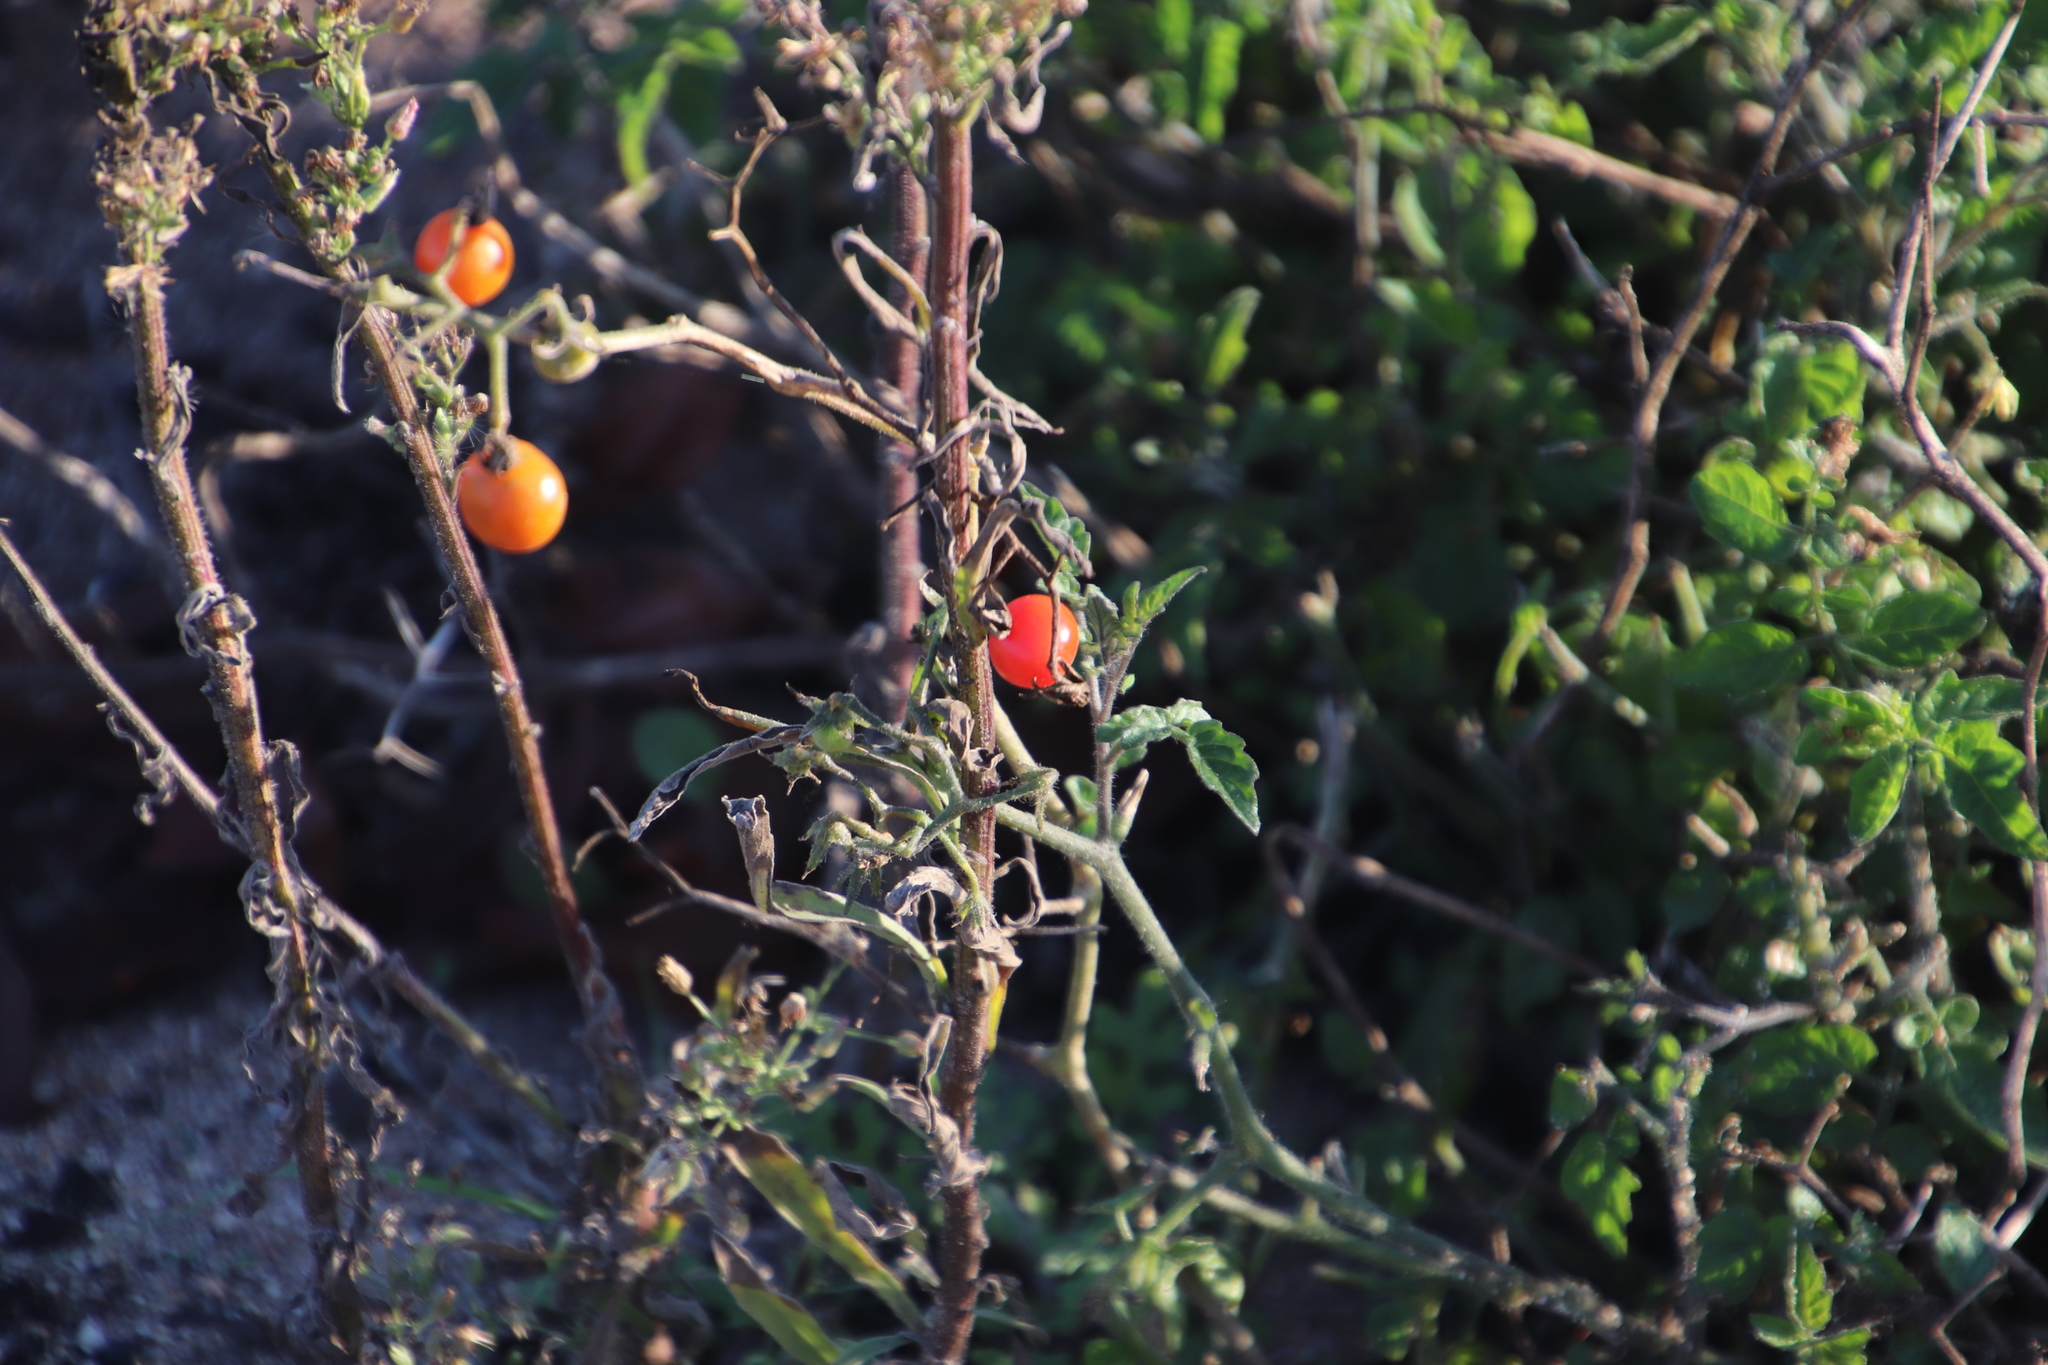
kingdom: Plantae
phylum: Tracheophyta
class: Magnoliopsida
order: Solanales
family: Solanaceae
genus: Solanum
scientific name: Solanum lycopersicum
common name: Garden tomato
